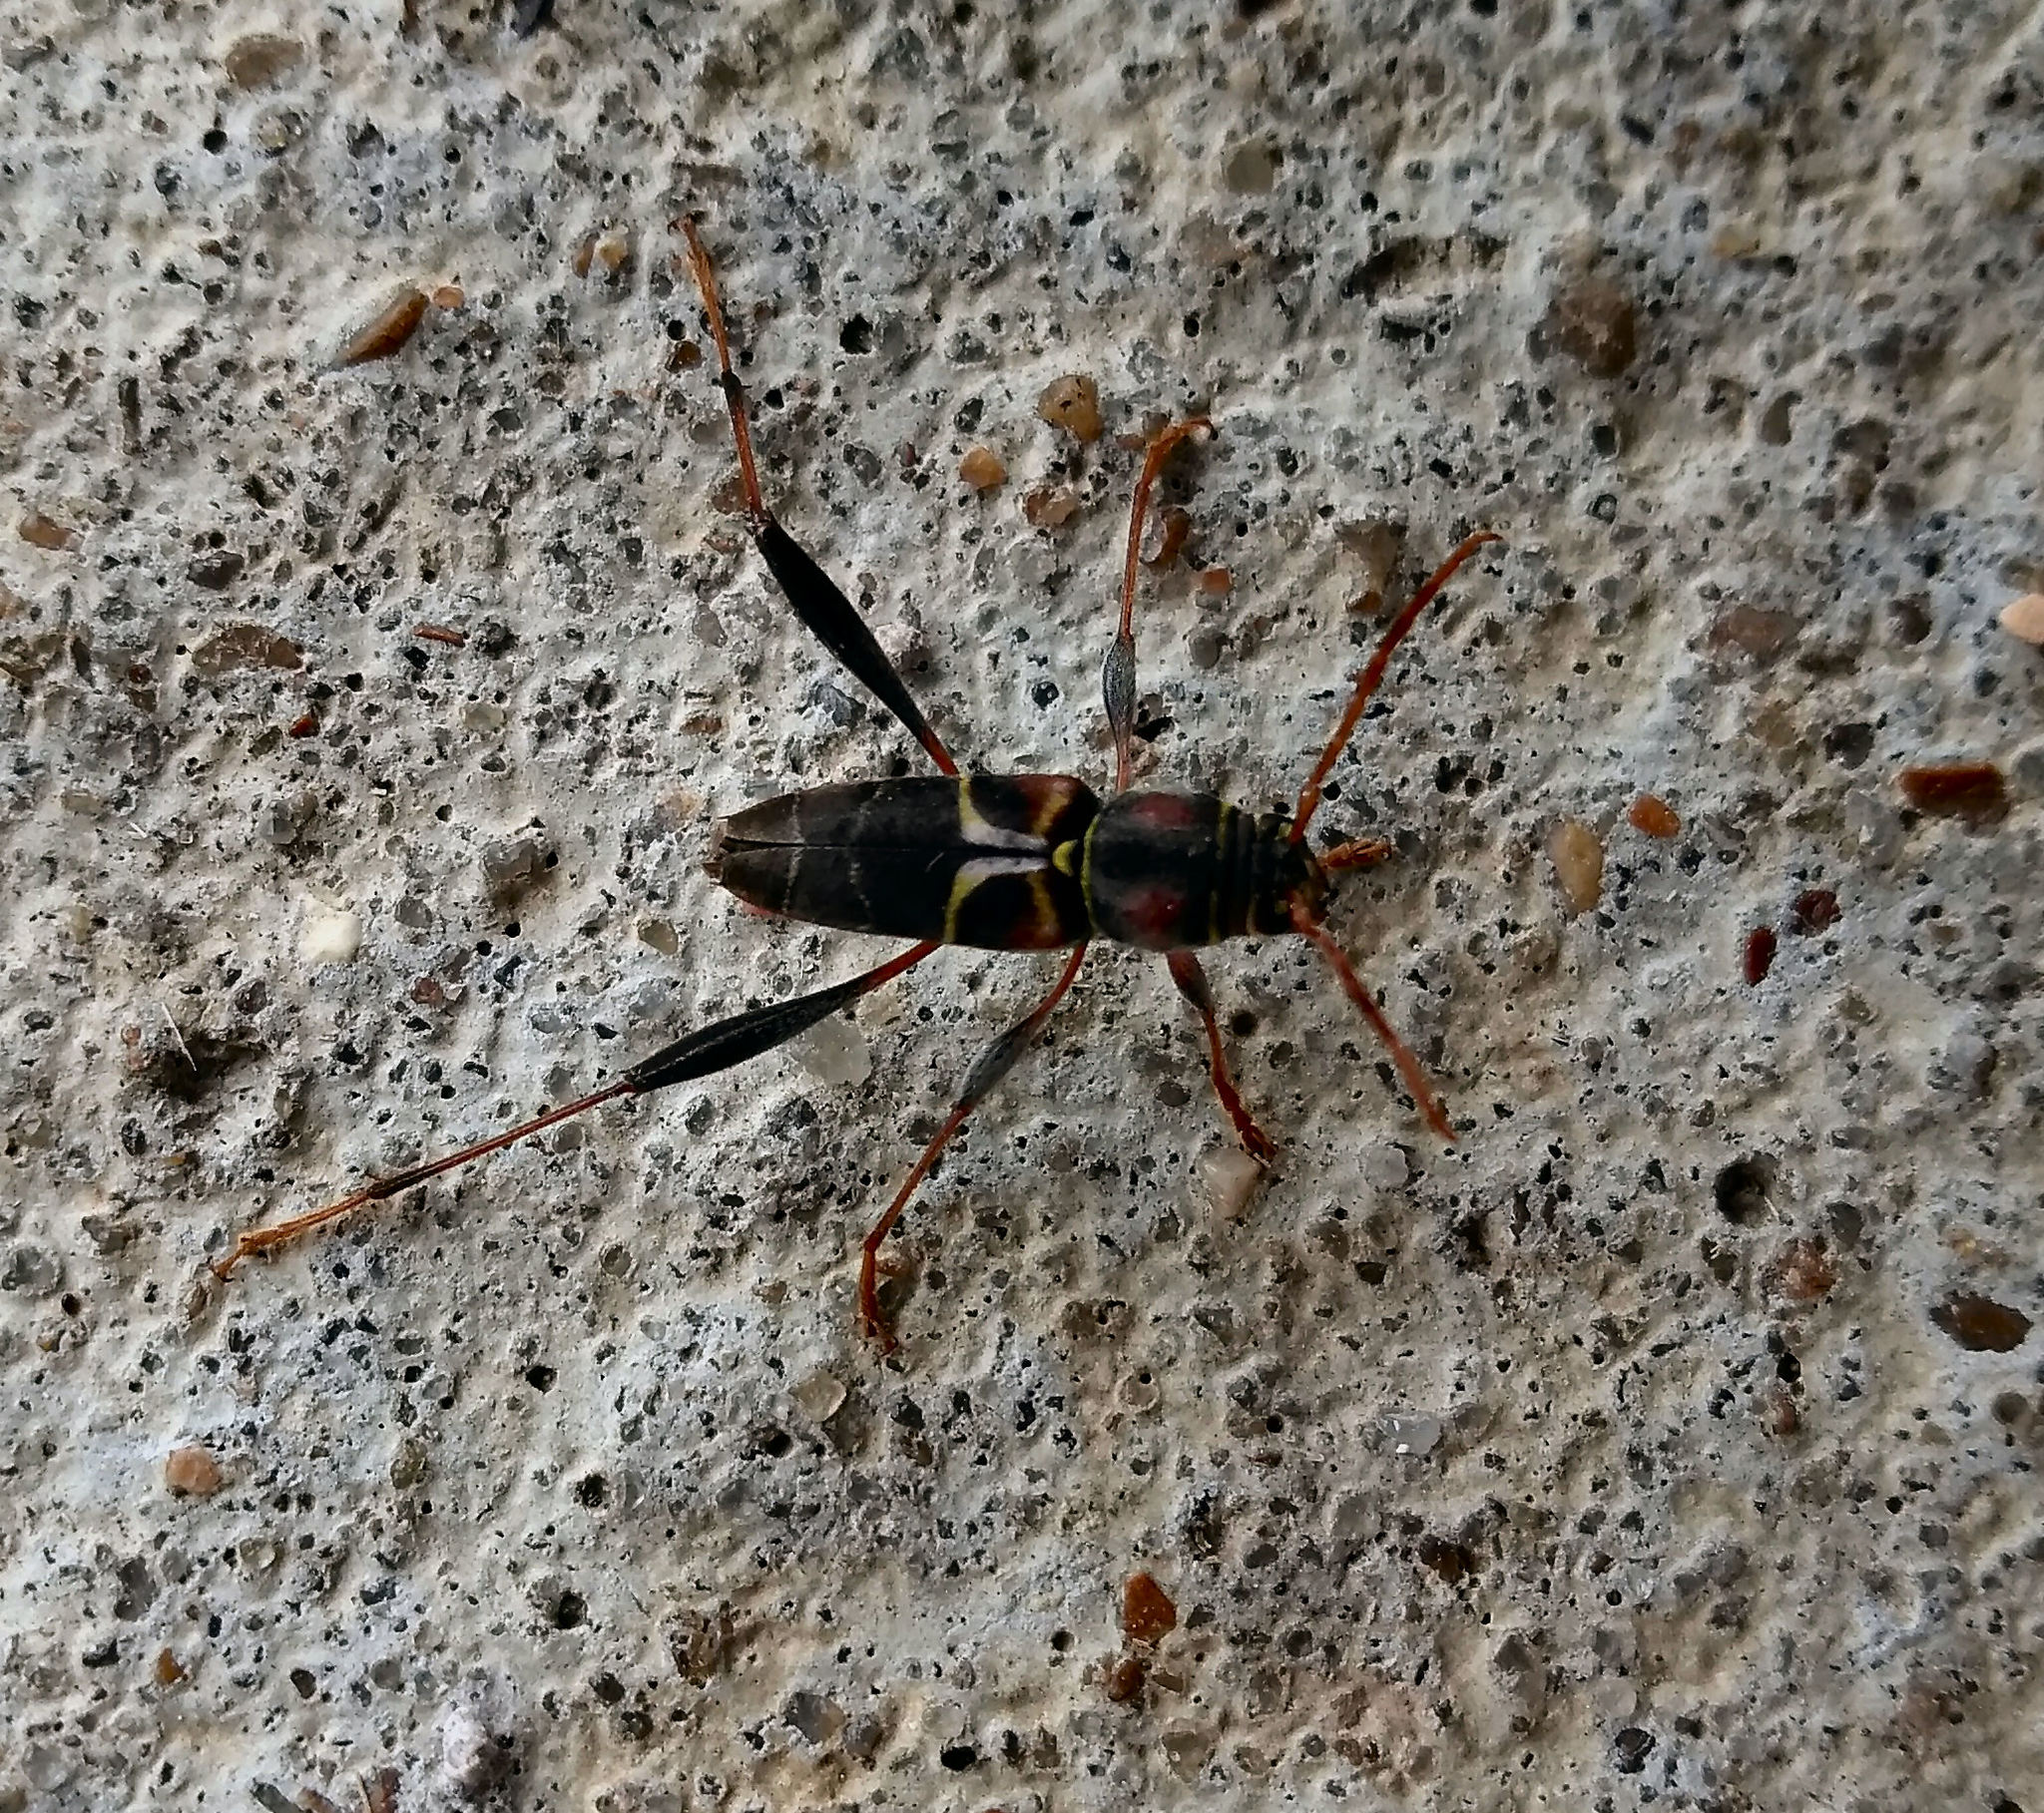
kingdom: Animalia
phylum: Arthropoda
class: Insecta
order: Coleoptera
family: Cerambycidae
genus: Neoclytus
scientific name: Neoclytus mucronatus
